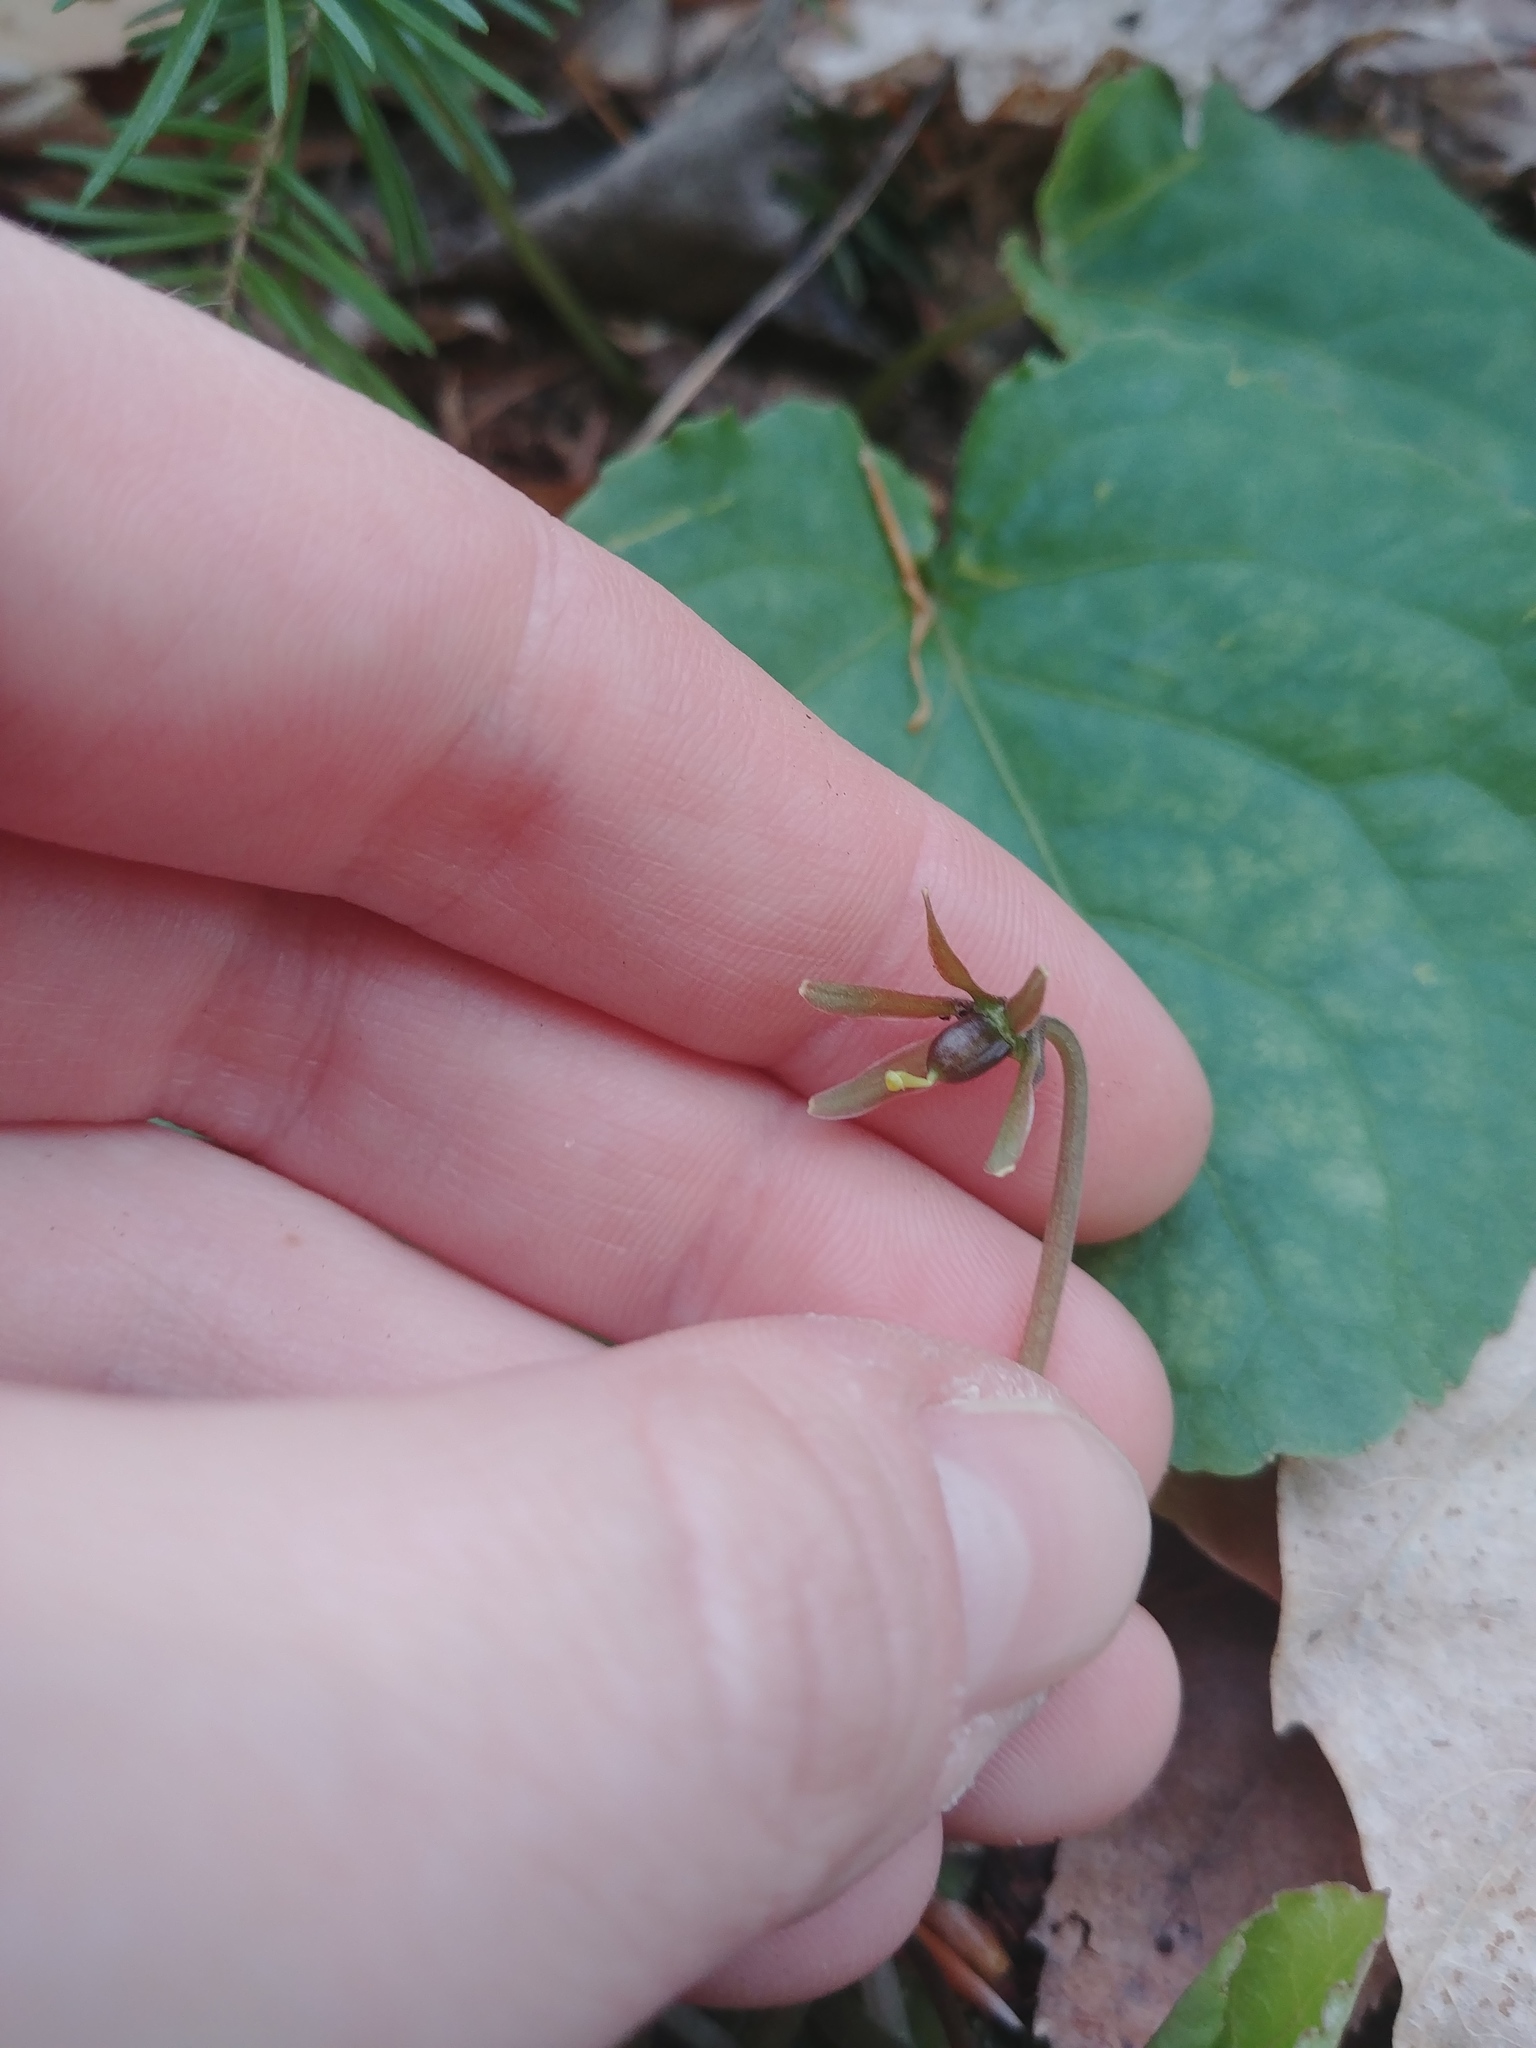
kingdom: Plantae
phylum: Tracheophyta
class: Magnoliopsida
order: Malpighiales
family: Violaceae
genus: Viola
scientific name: Viola rotundifolia
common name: Early yellow violet
